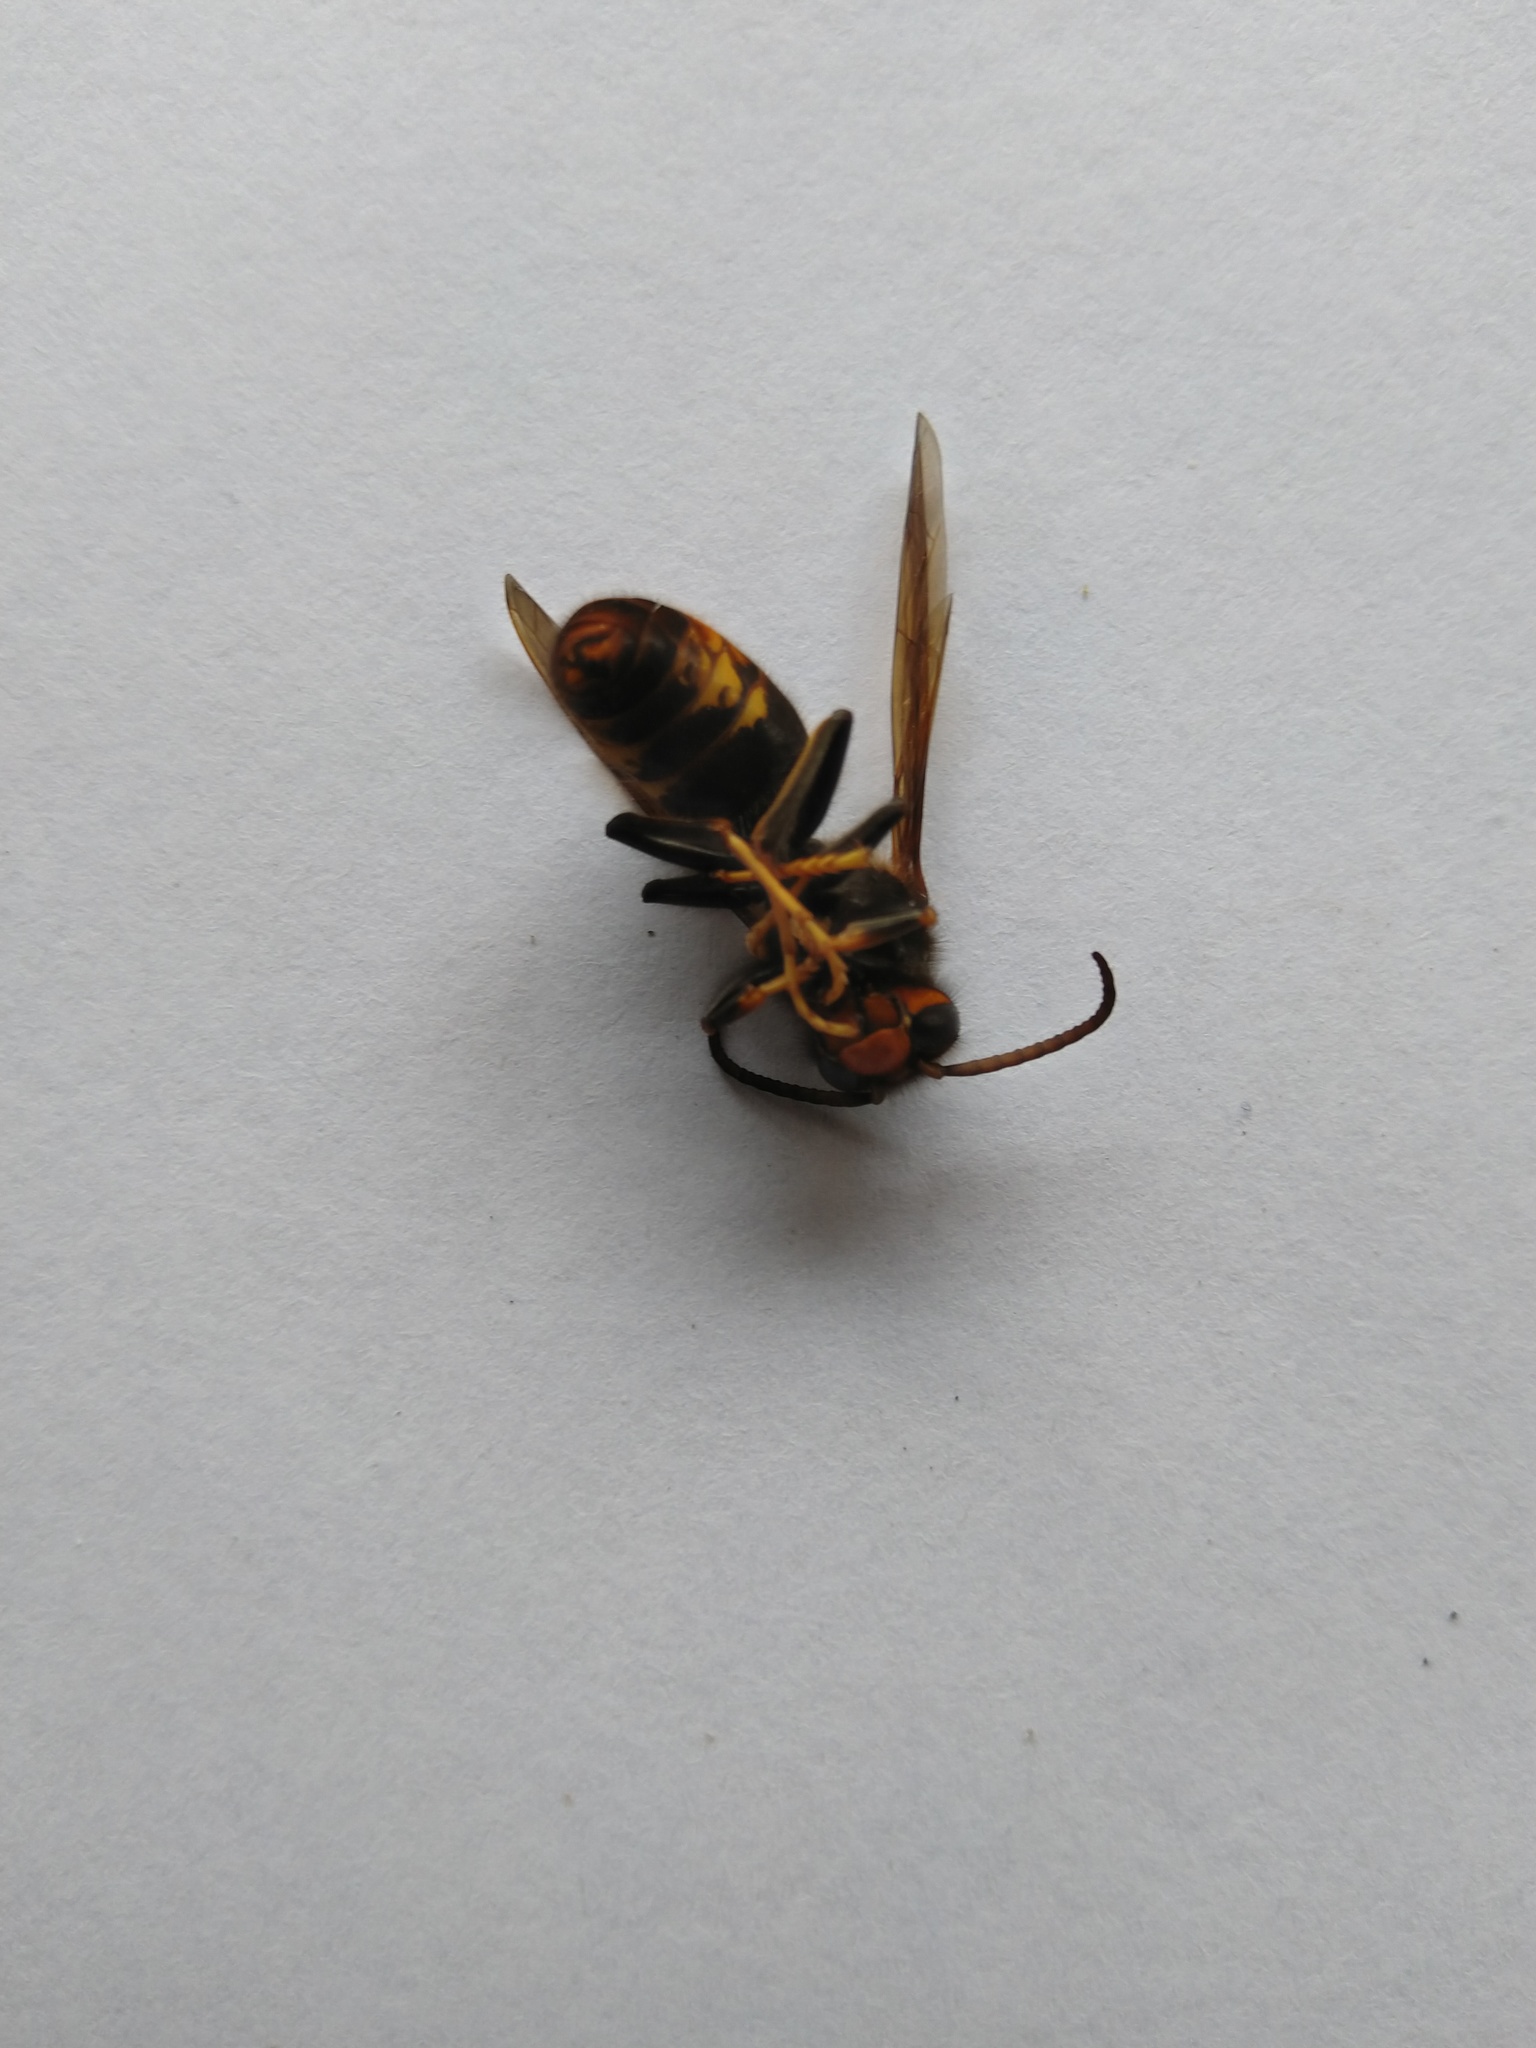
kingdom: Animalia
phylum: Arthropoda
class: Insecta
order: Hymenoptera
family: Vespidae
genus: Vespa
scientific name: Vespa velutina
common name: Asian hornet
